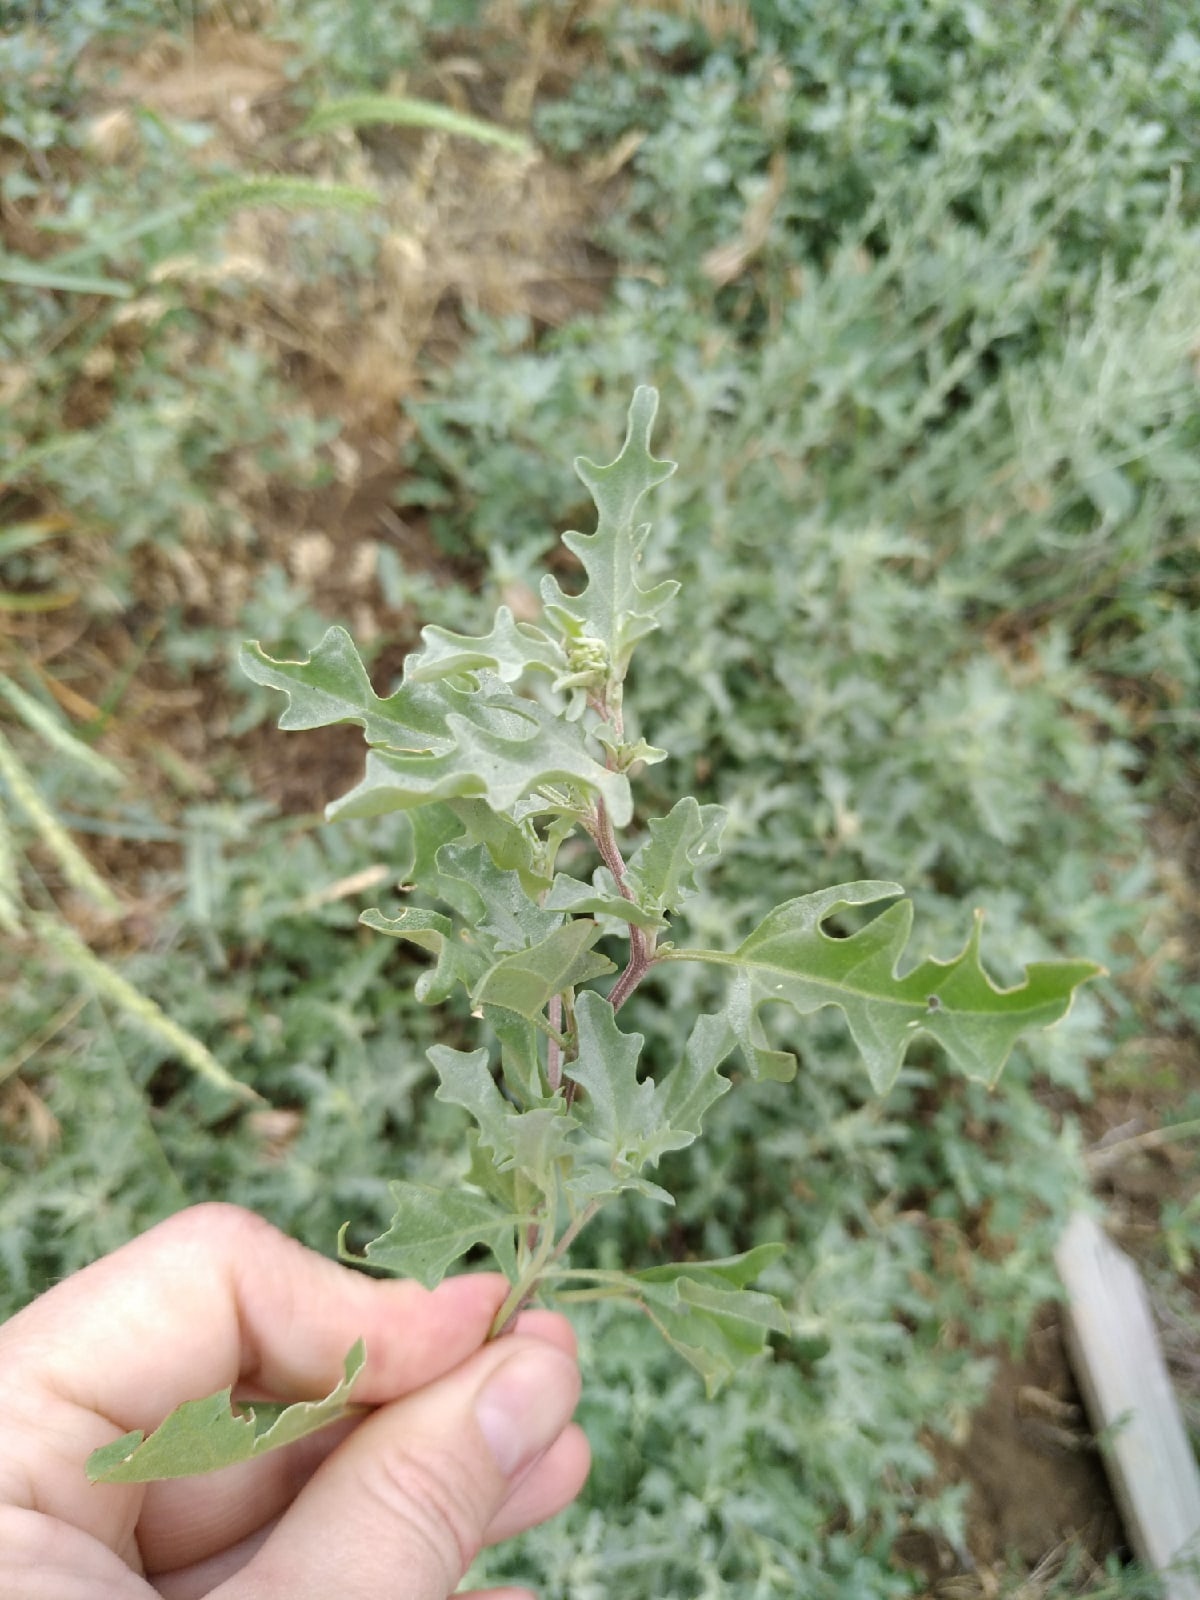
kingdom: Plantae
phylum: Tracheophyta
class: Magnoliopsida
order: Caryophyllales
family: Amaranthaceae
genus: Atriplex
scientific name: Atriplex tatarica
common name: Tatarian orache
